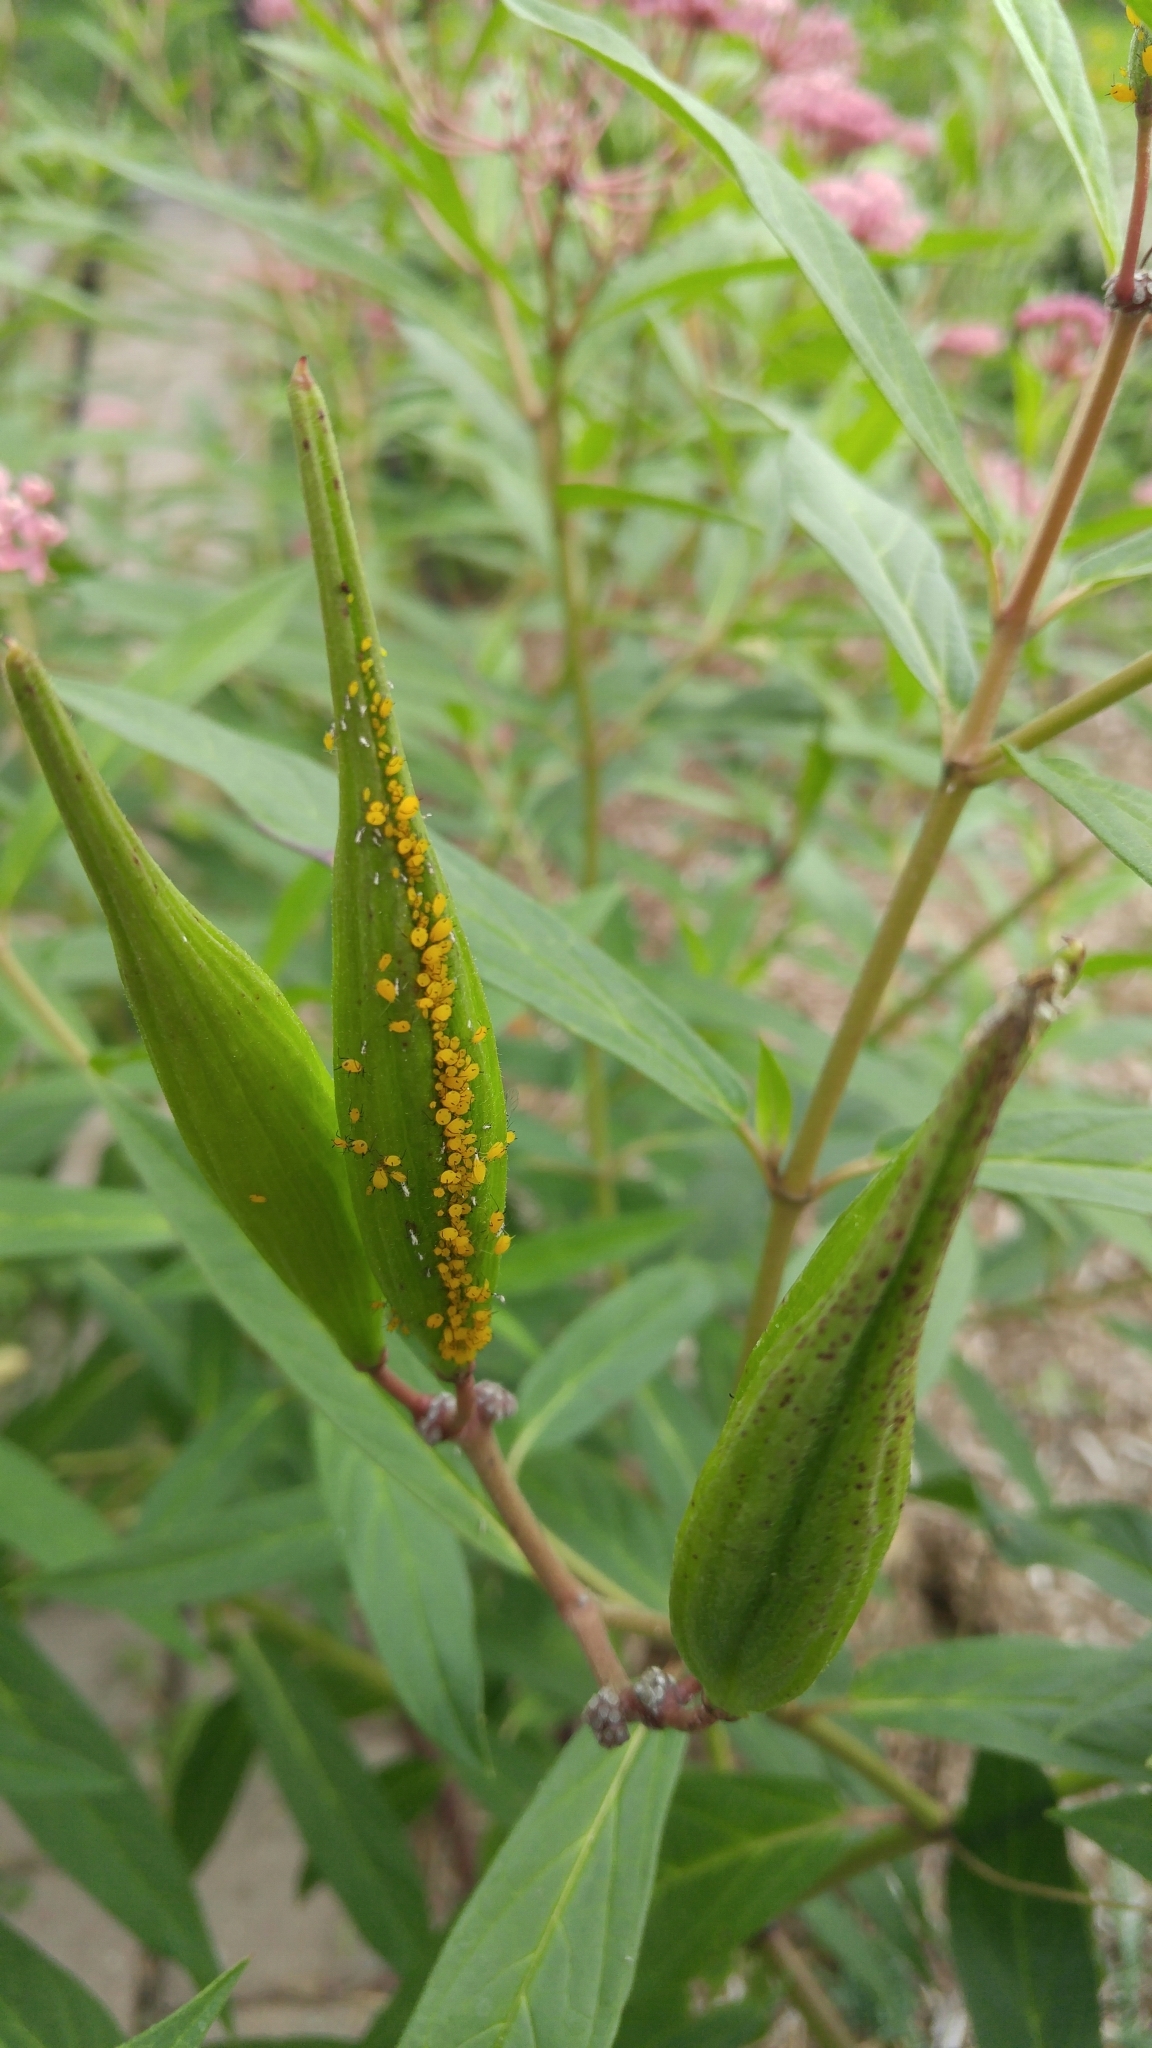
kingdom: Animalia
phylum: Arthropoda
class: Insecta
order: Hemiptera
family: Aphididae
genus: Aphis
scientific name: Aphis nerii
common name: Oleander aphid
